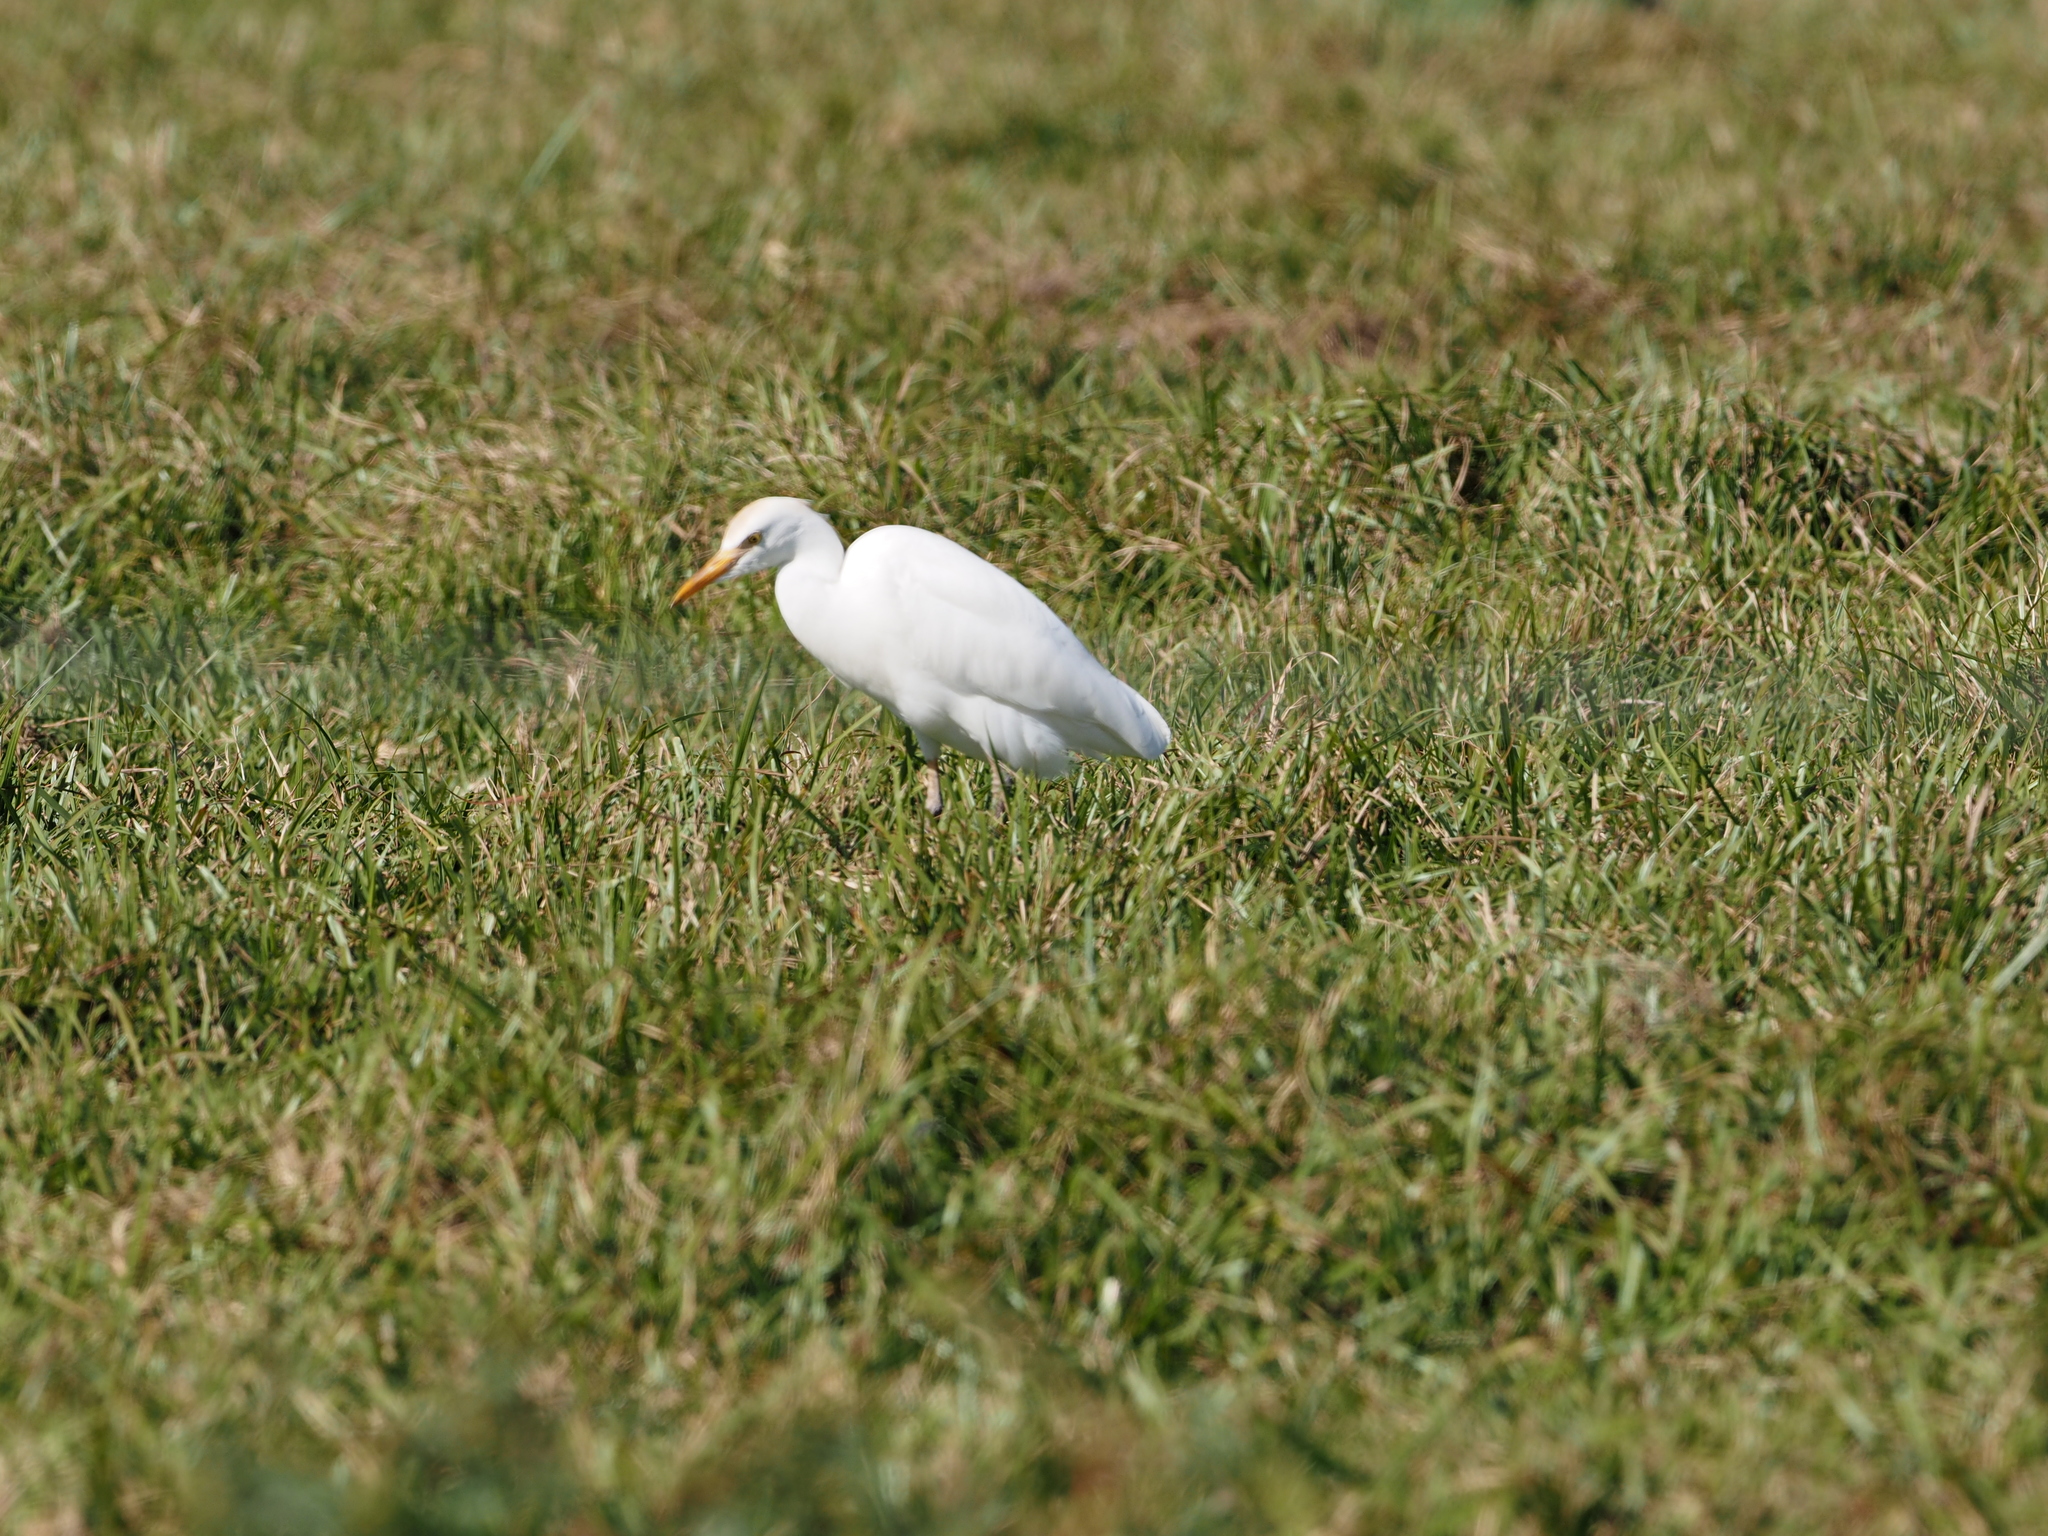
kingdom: Animalia
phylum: Chordata
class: Aves
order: Pelecaniformes
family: Ardeidae
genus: Bubulcus
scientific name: Bubulcus ibis
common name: Cattle egret
